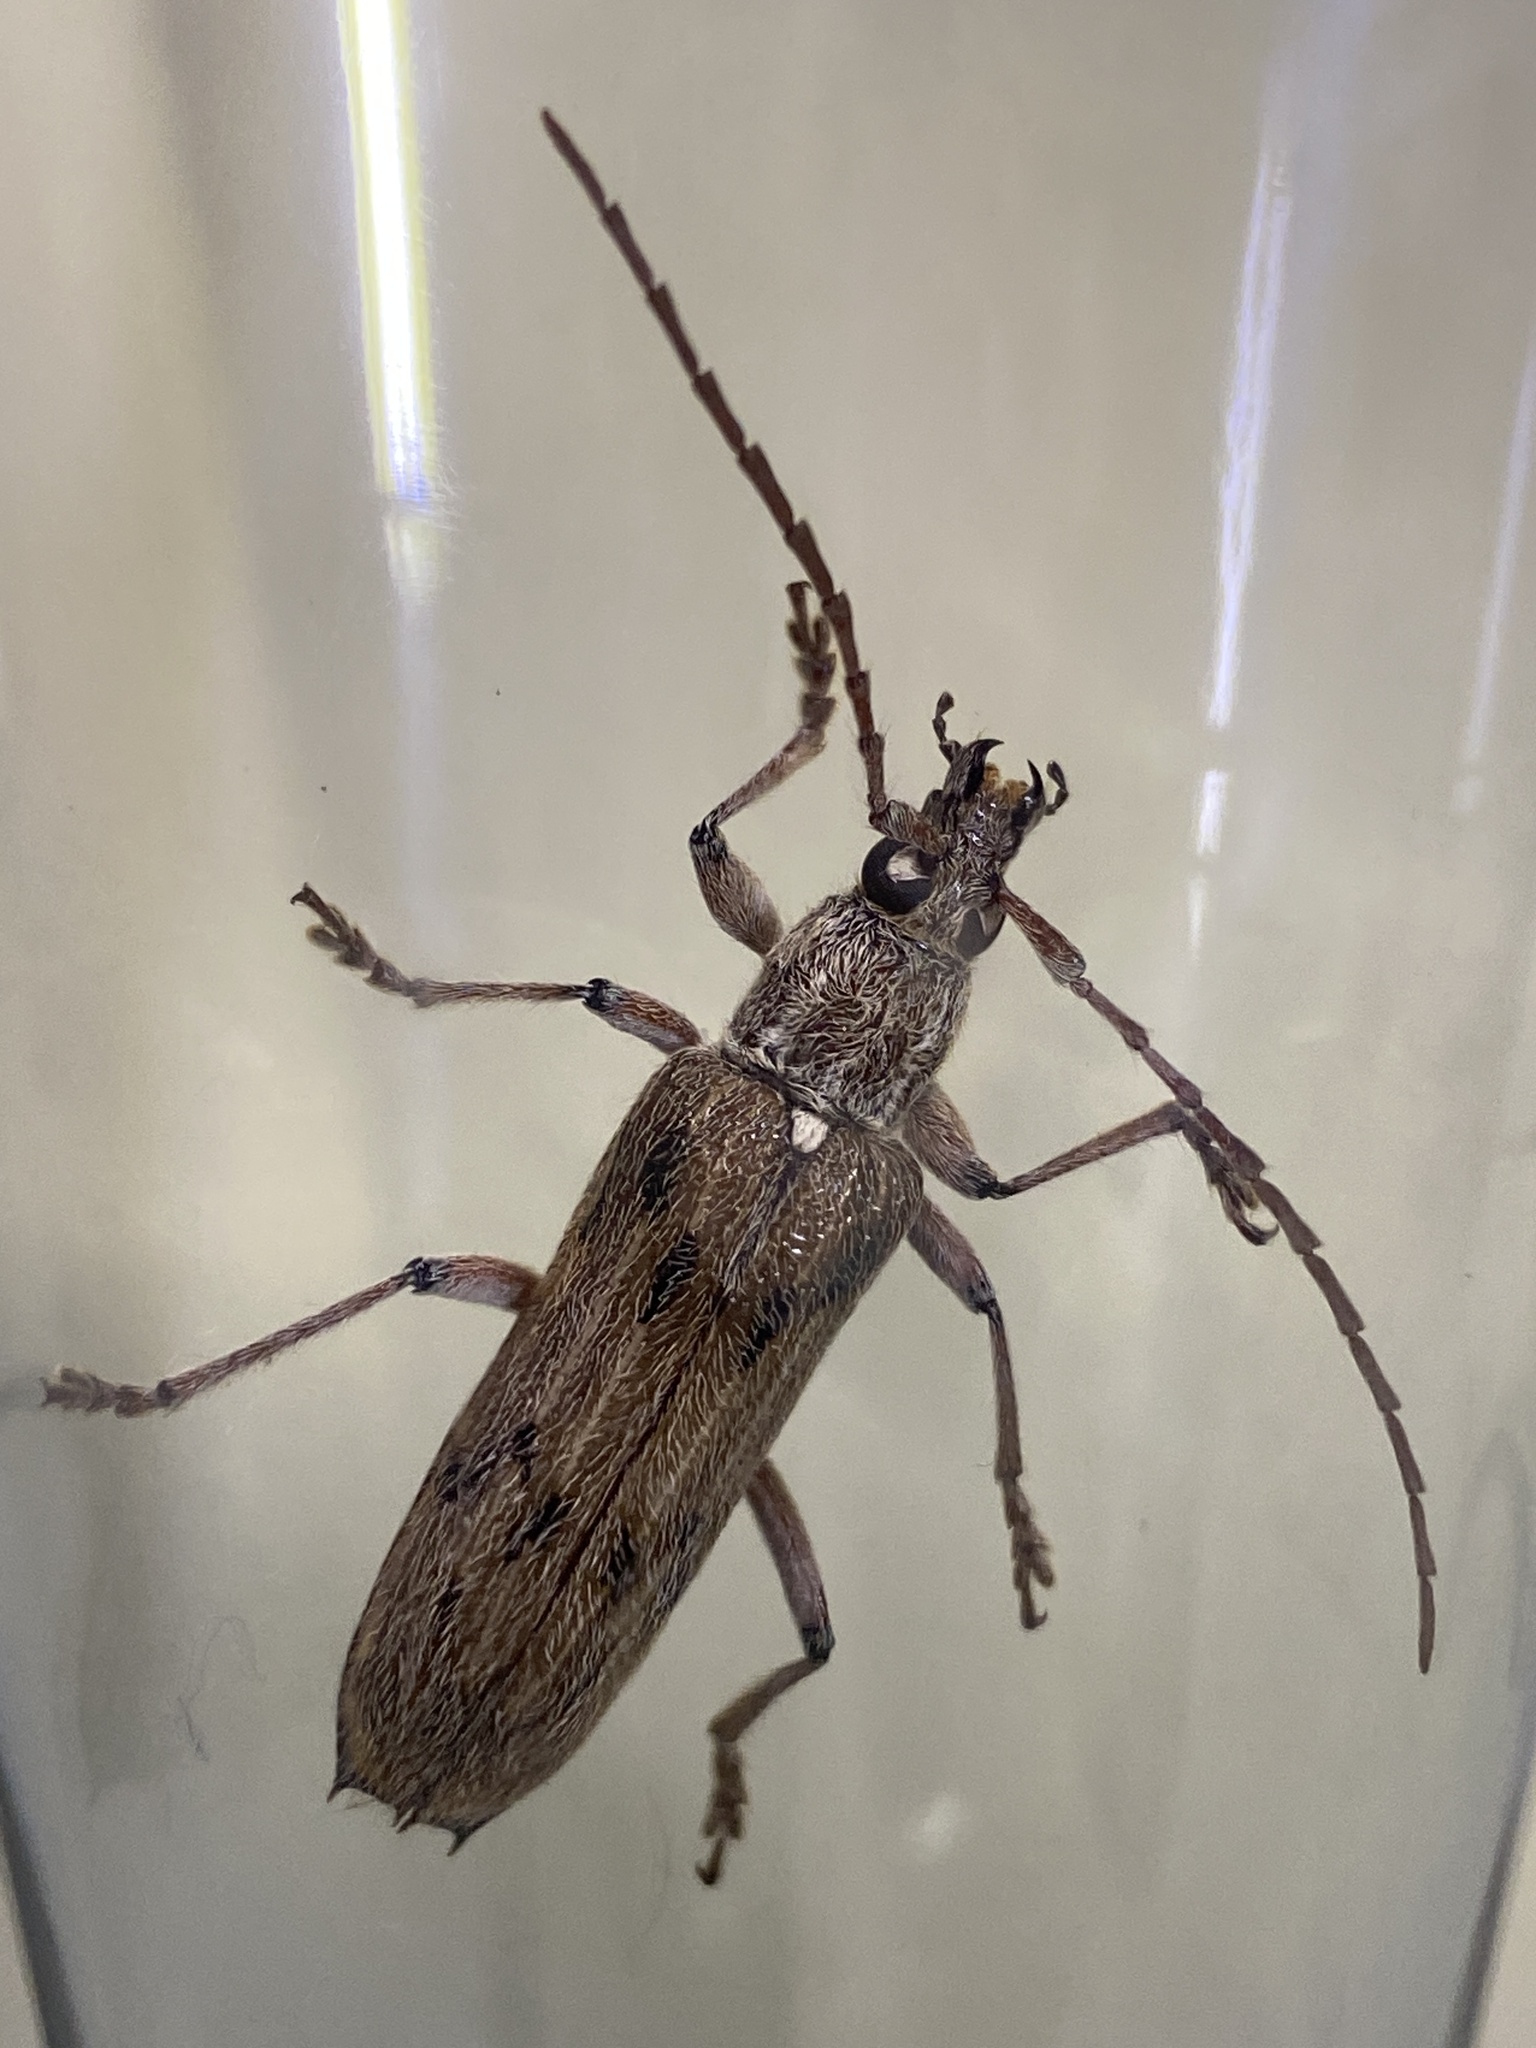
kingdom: Animalia
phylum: Arthropoda
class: Insecta
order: Coleoptera
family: Cerambycidae
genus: Strongylurus
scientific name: Strongylurus musgravei
